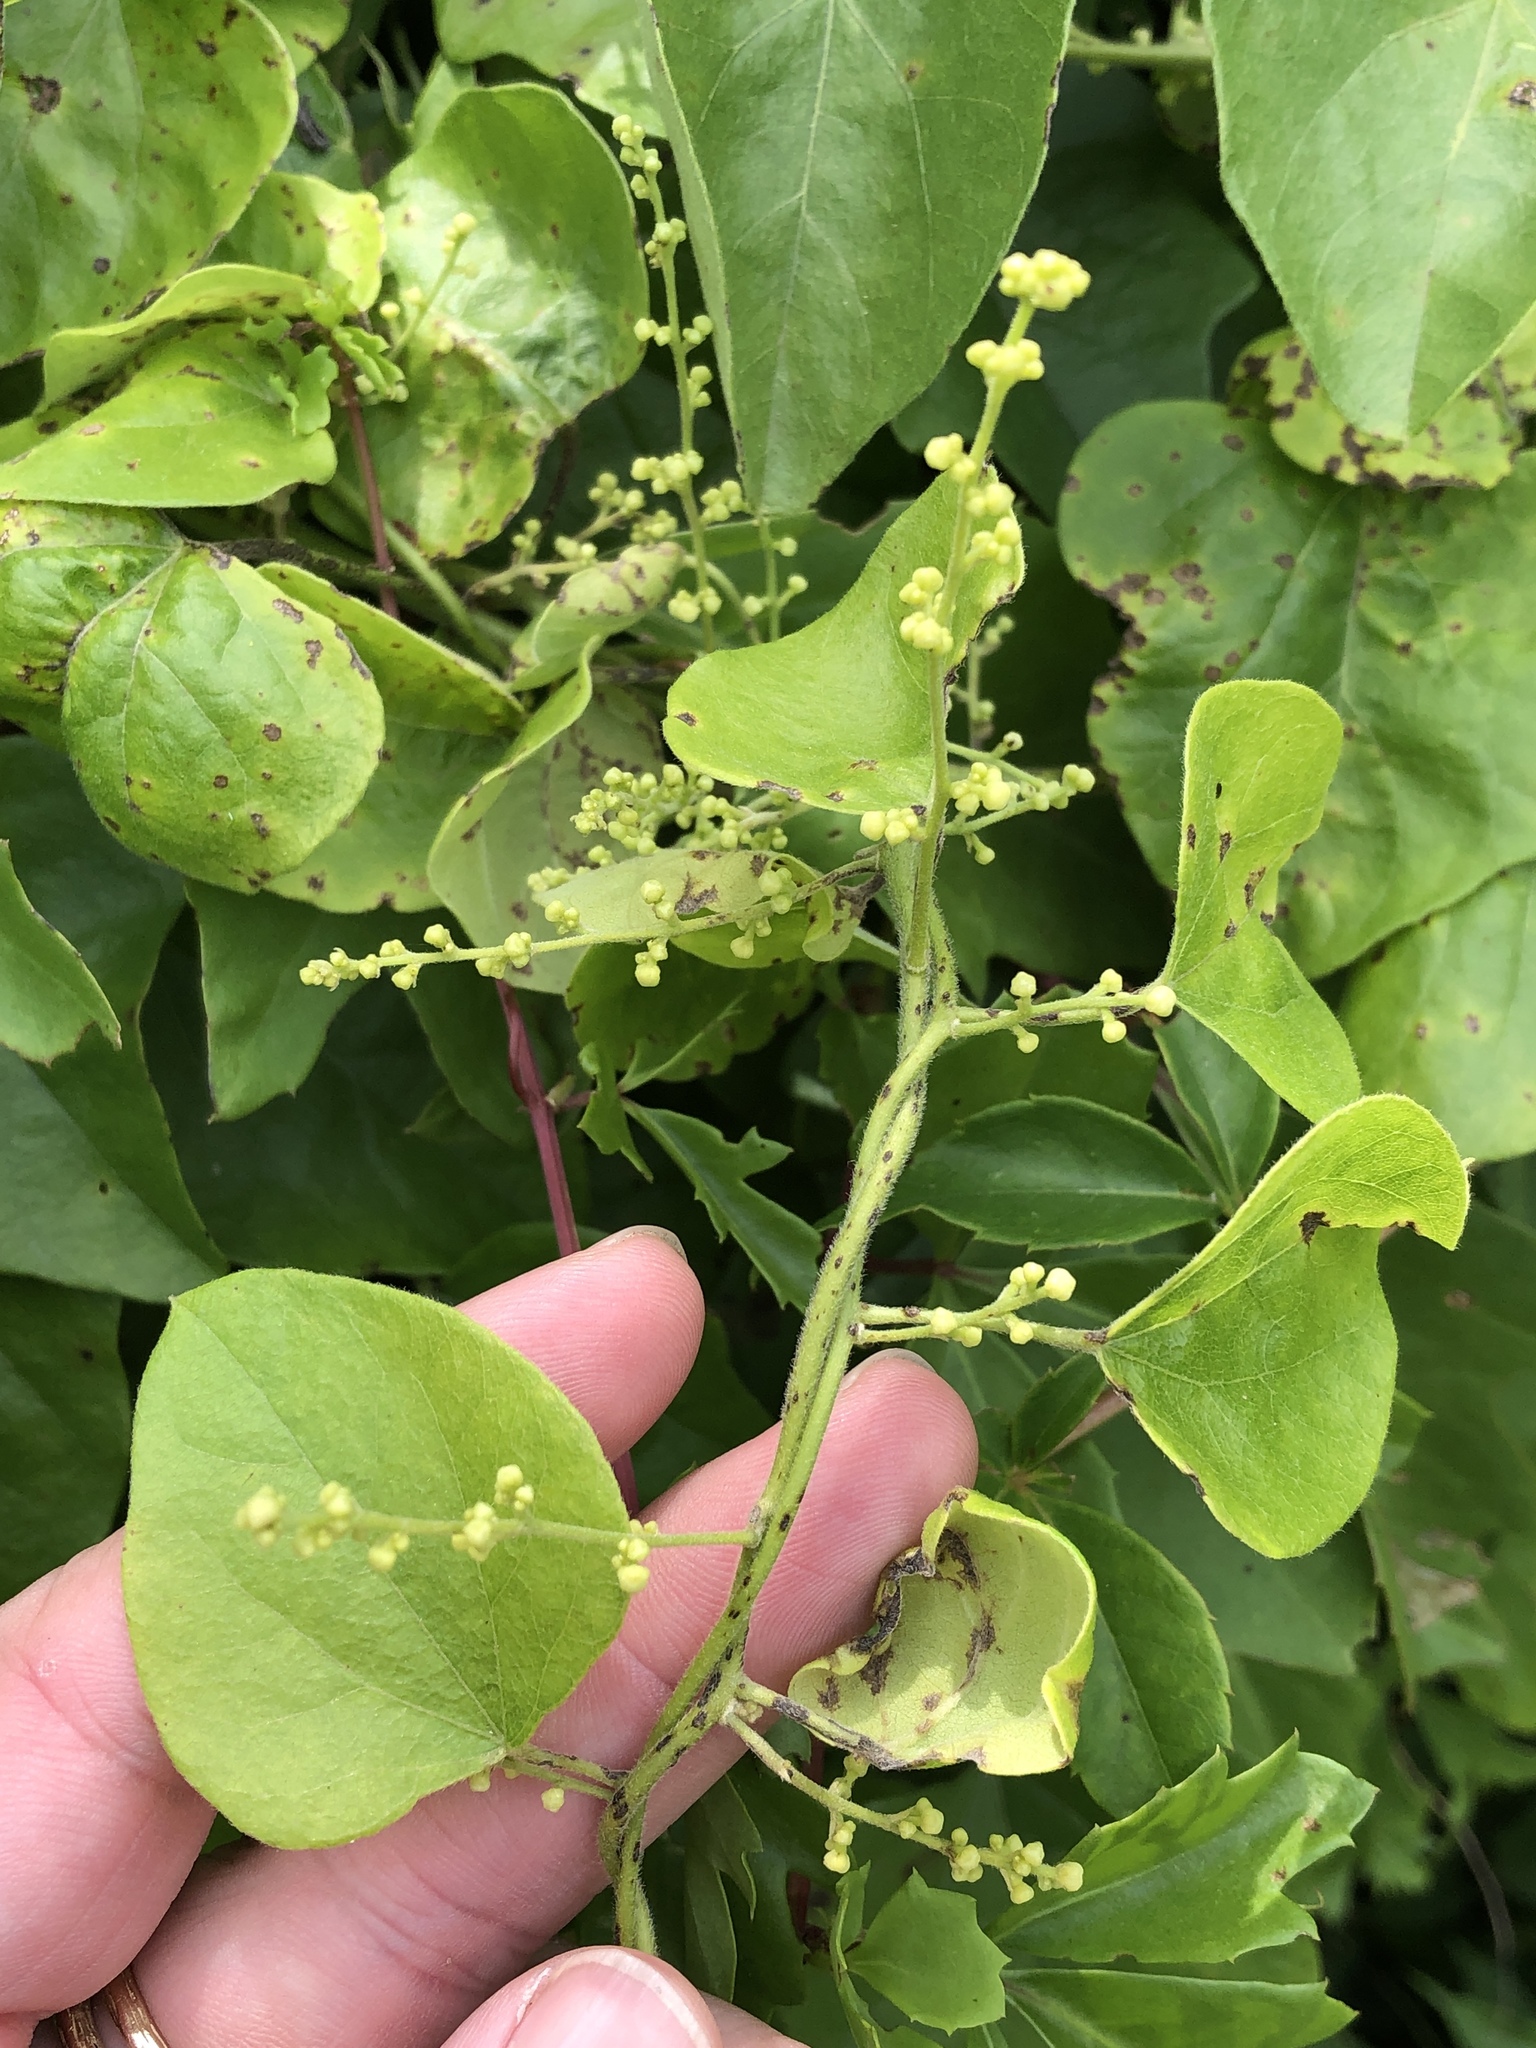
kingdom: Plantae
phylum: Tracheophyta
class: Magnoliopsida
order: Ranunculales
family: Menispermaceae
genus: Cocculus
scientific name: Cocculus carolinus
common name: Carolina moonseed
